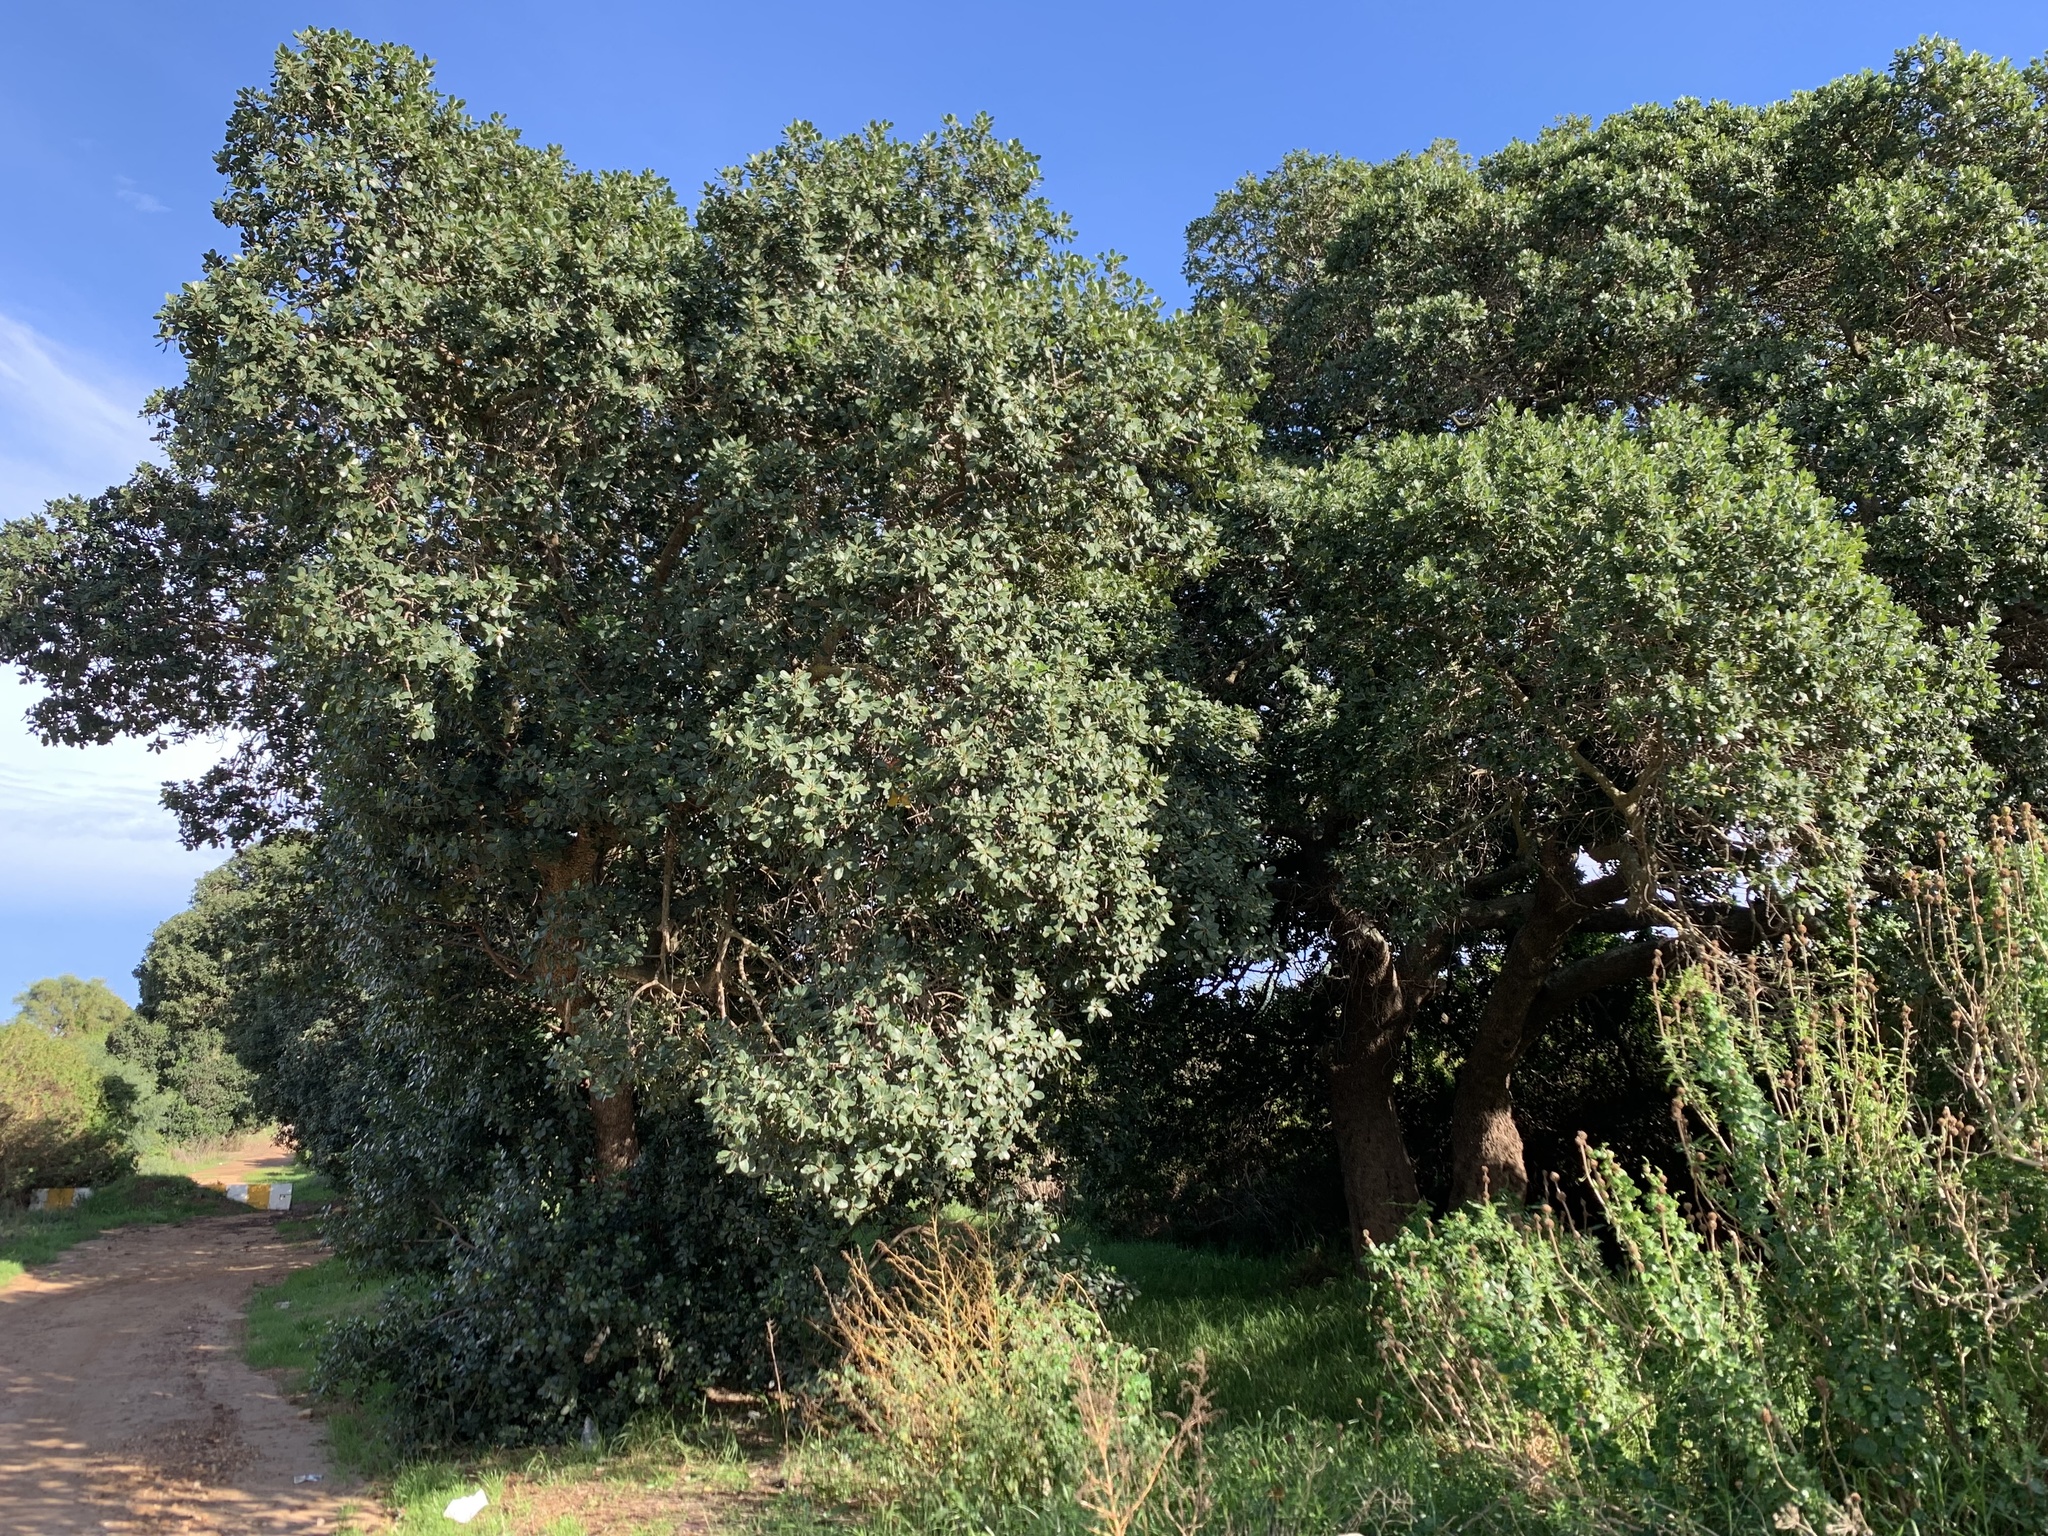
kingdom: Plantae
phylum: Tracheophyta
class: Magnoliopsida
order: Ericales
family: Sapotaceae
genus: Sideroxylon
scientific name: Sideroxylon inerme
